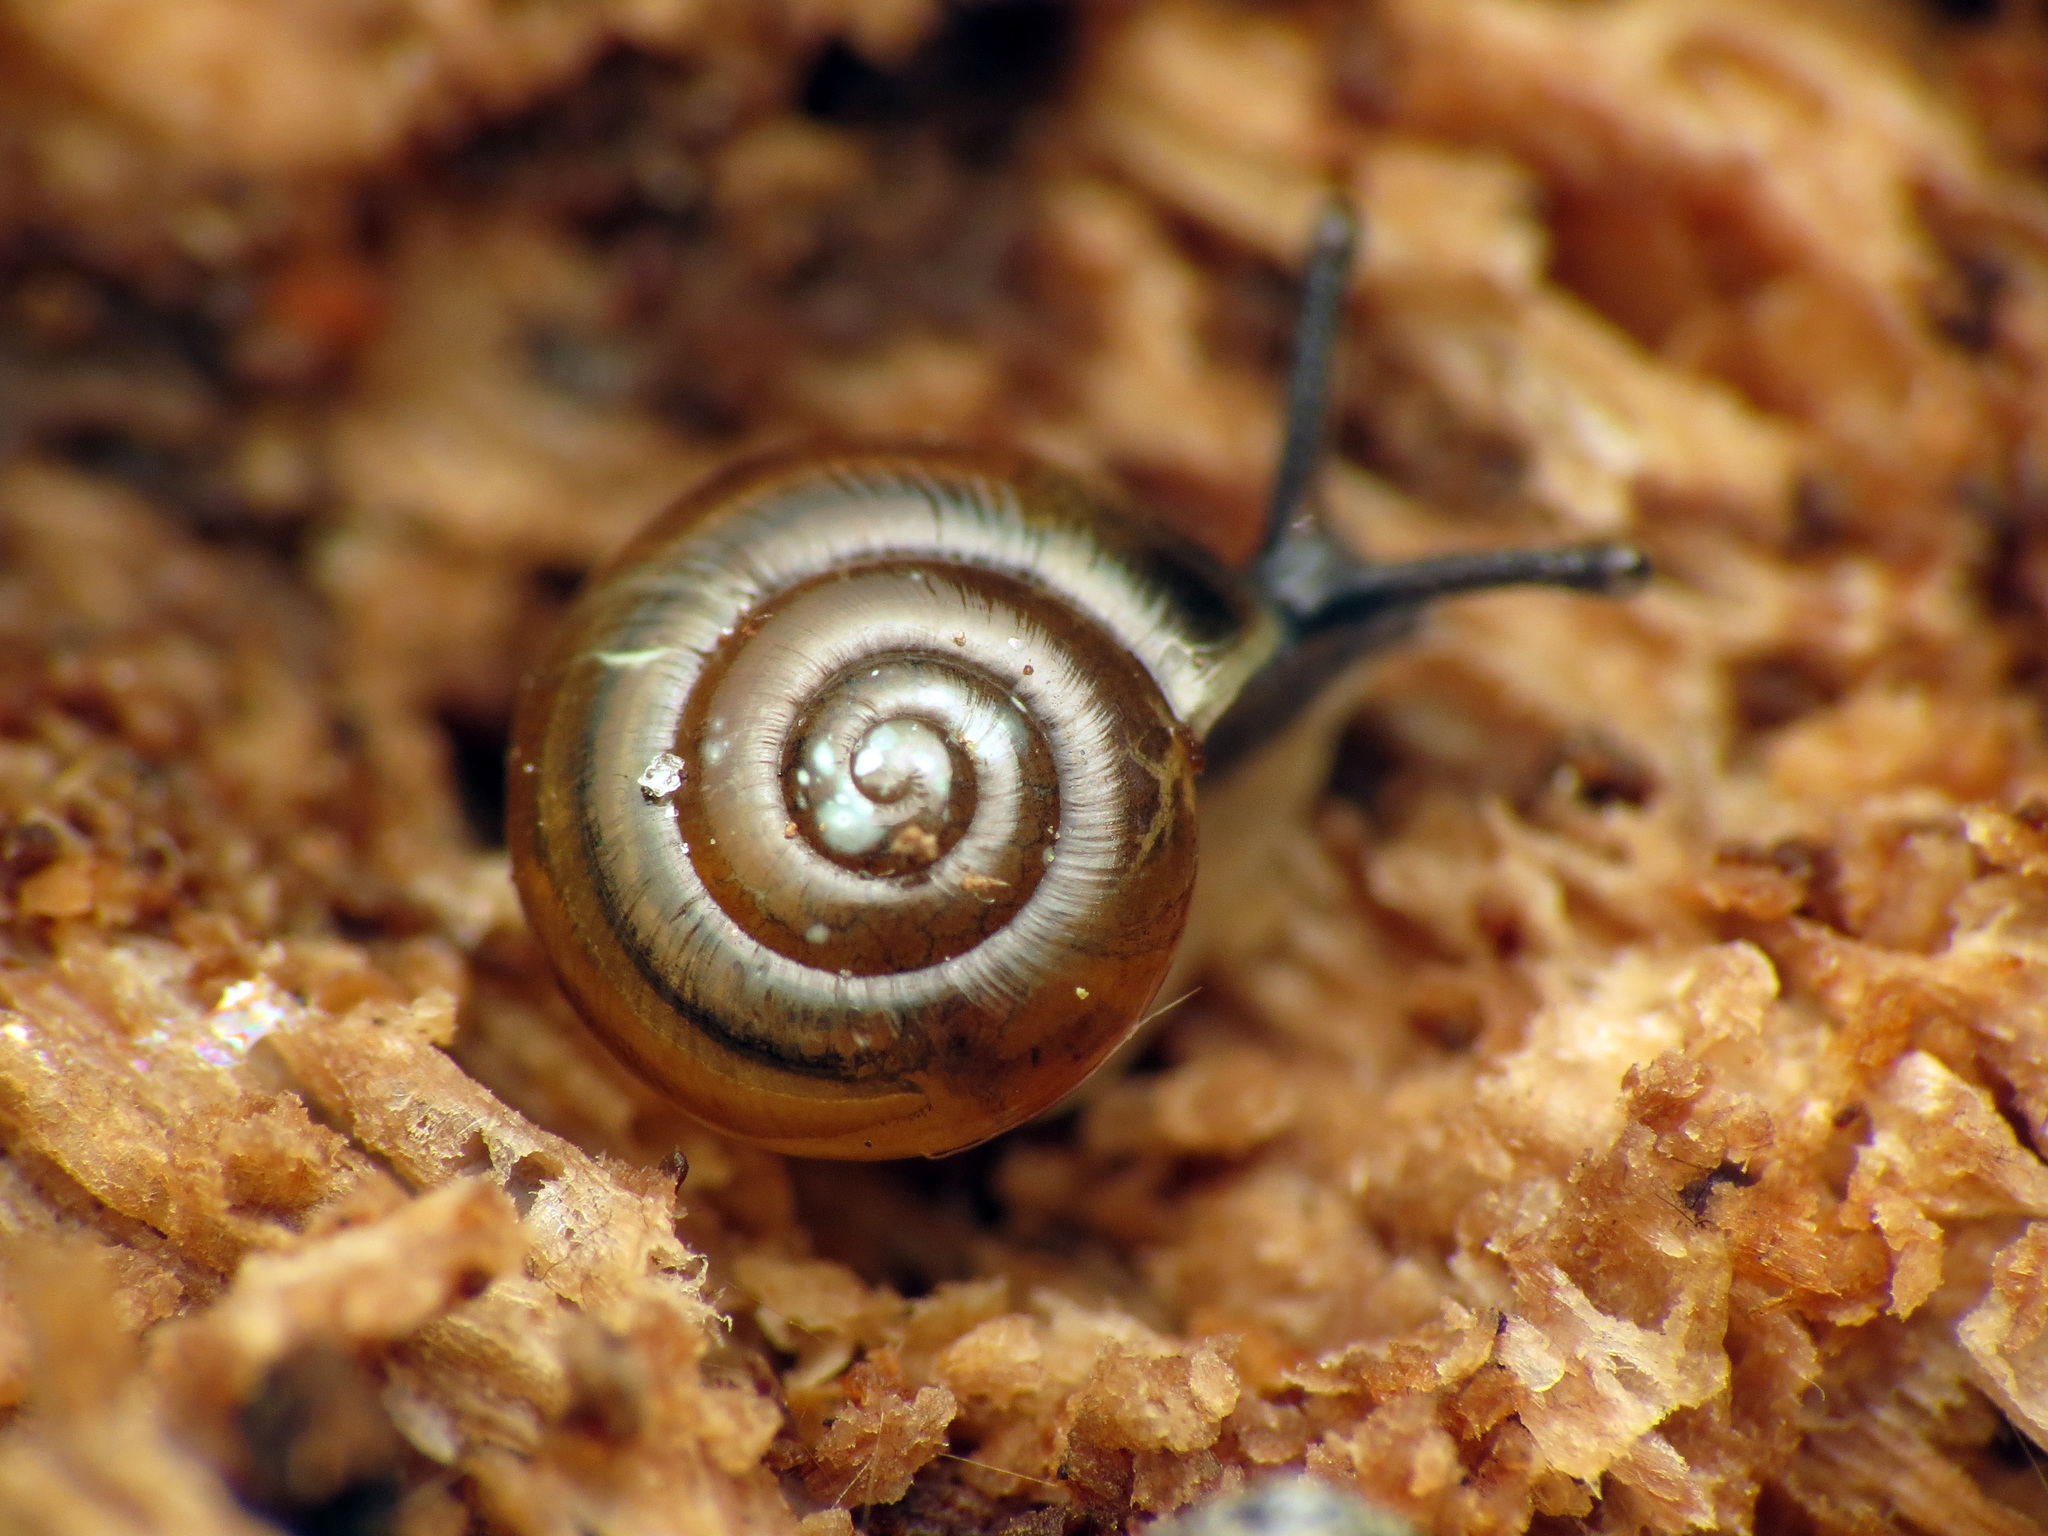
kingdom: Animalia
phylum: Mollusca
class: Gastropoda
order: Stylommatophora
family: Gastrodontidae
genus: Zonitoides
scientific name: Zonitoides arboreus
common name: Quick gloss
